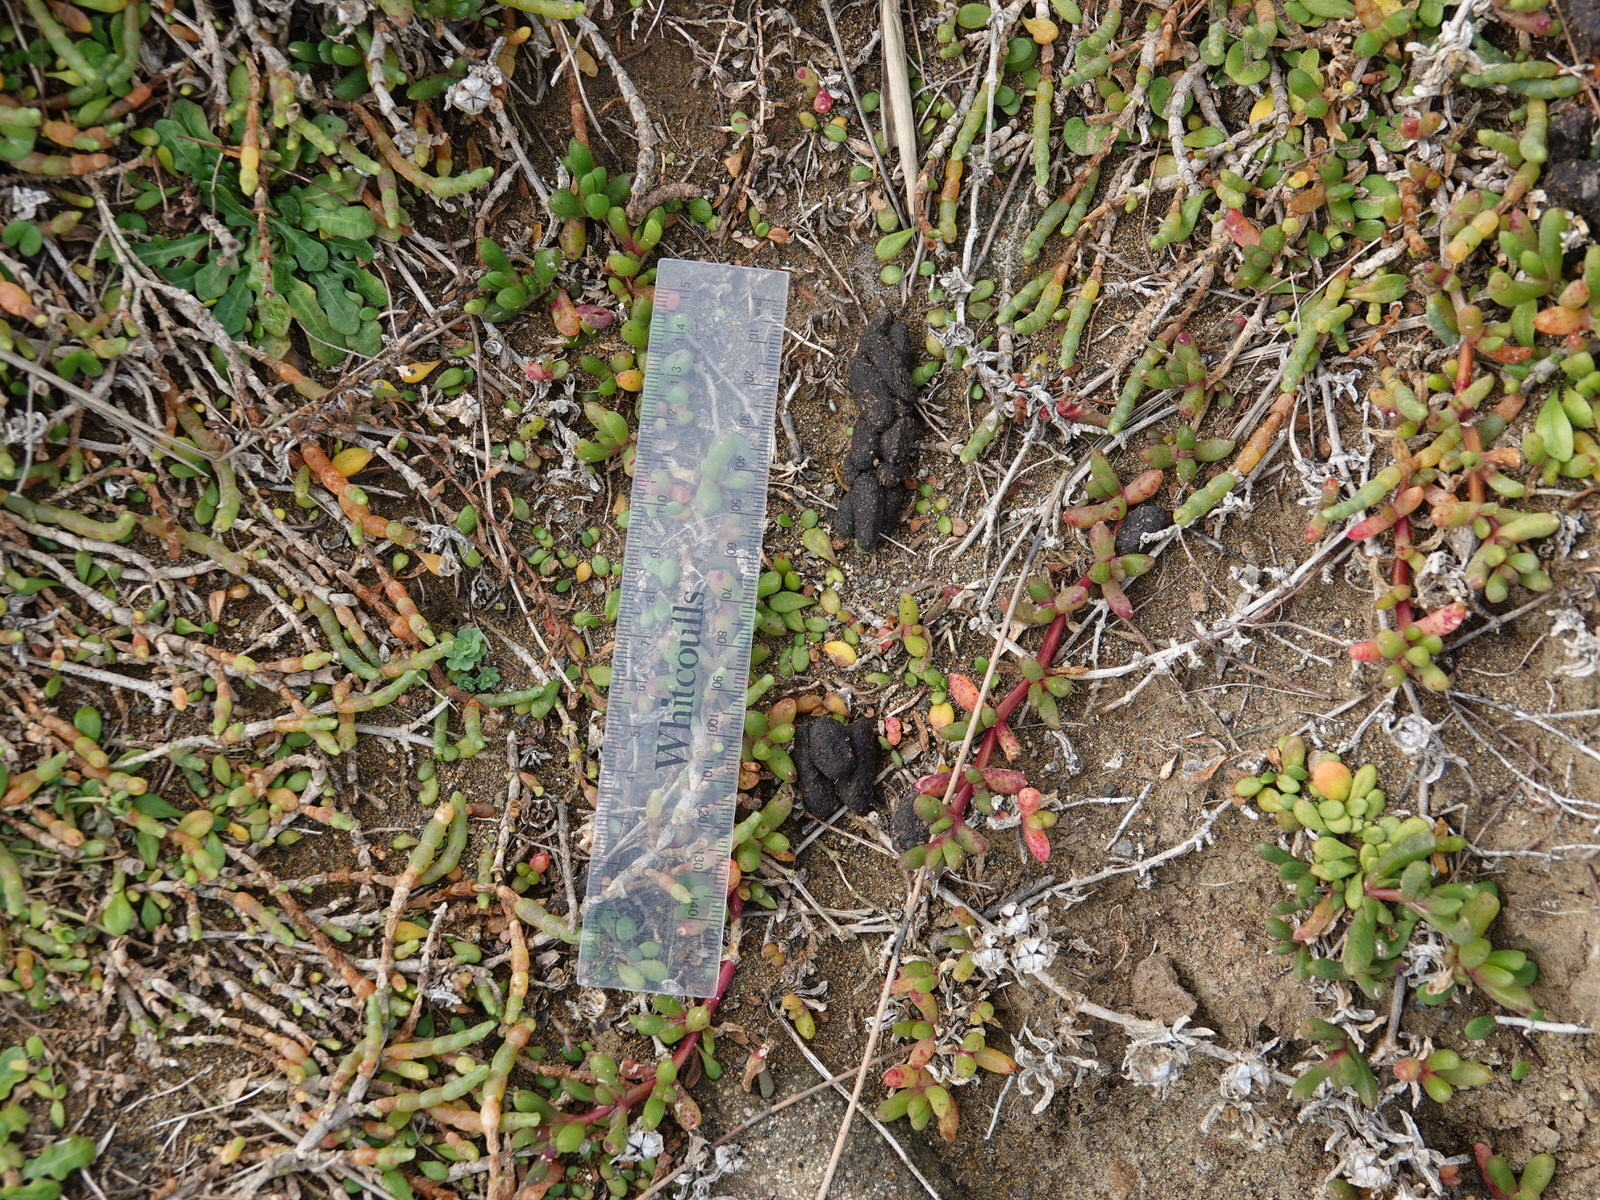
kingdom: Animalia
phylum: Chordata
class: Mammalia
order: Diprotodontia
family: Phalangeridae
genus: Trichosurus
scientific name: Trichosurus vulpecula
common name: Common brushtail
